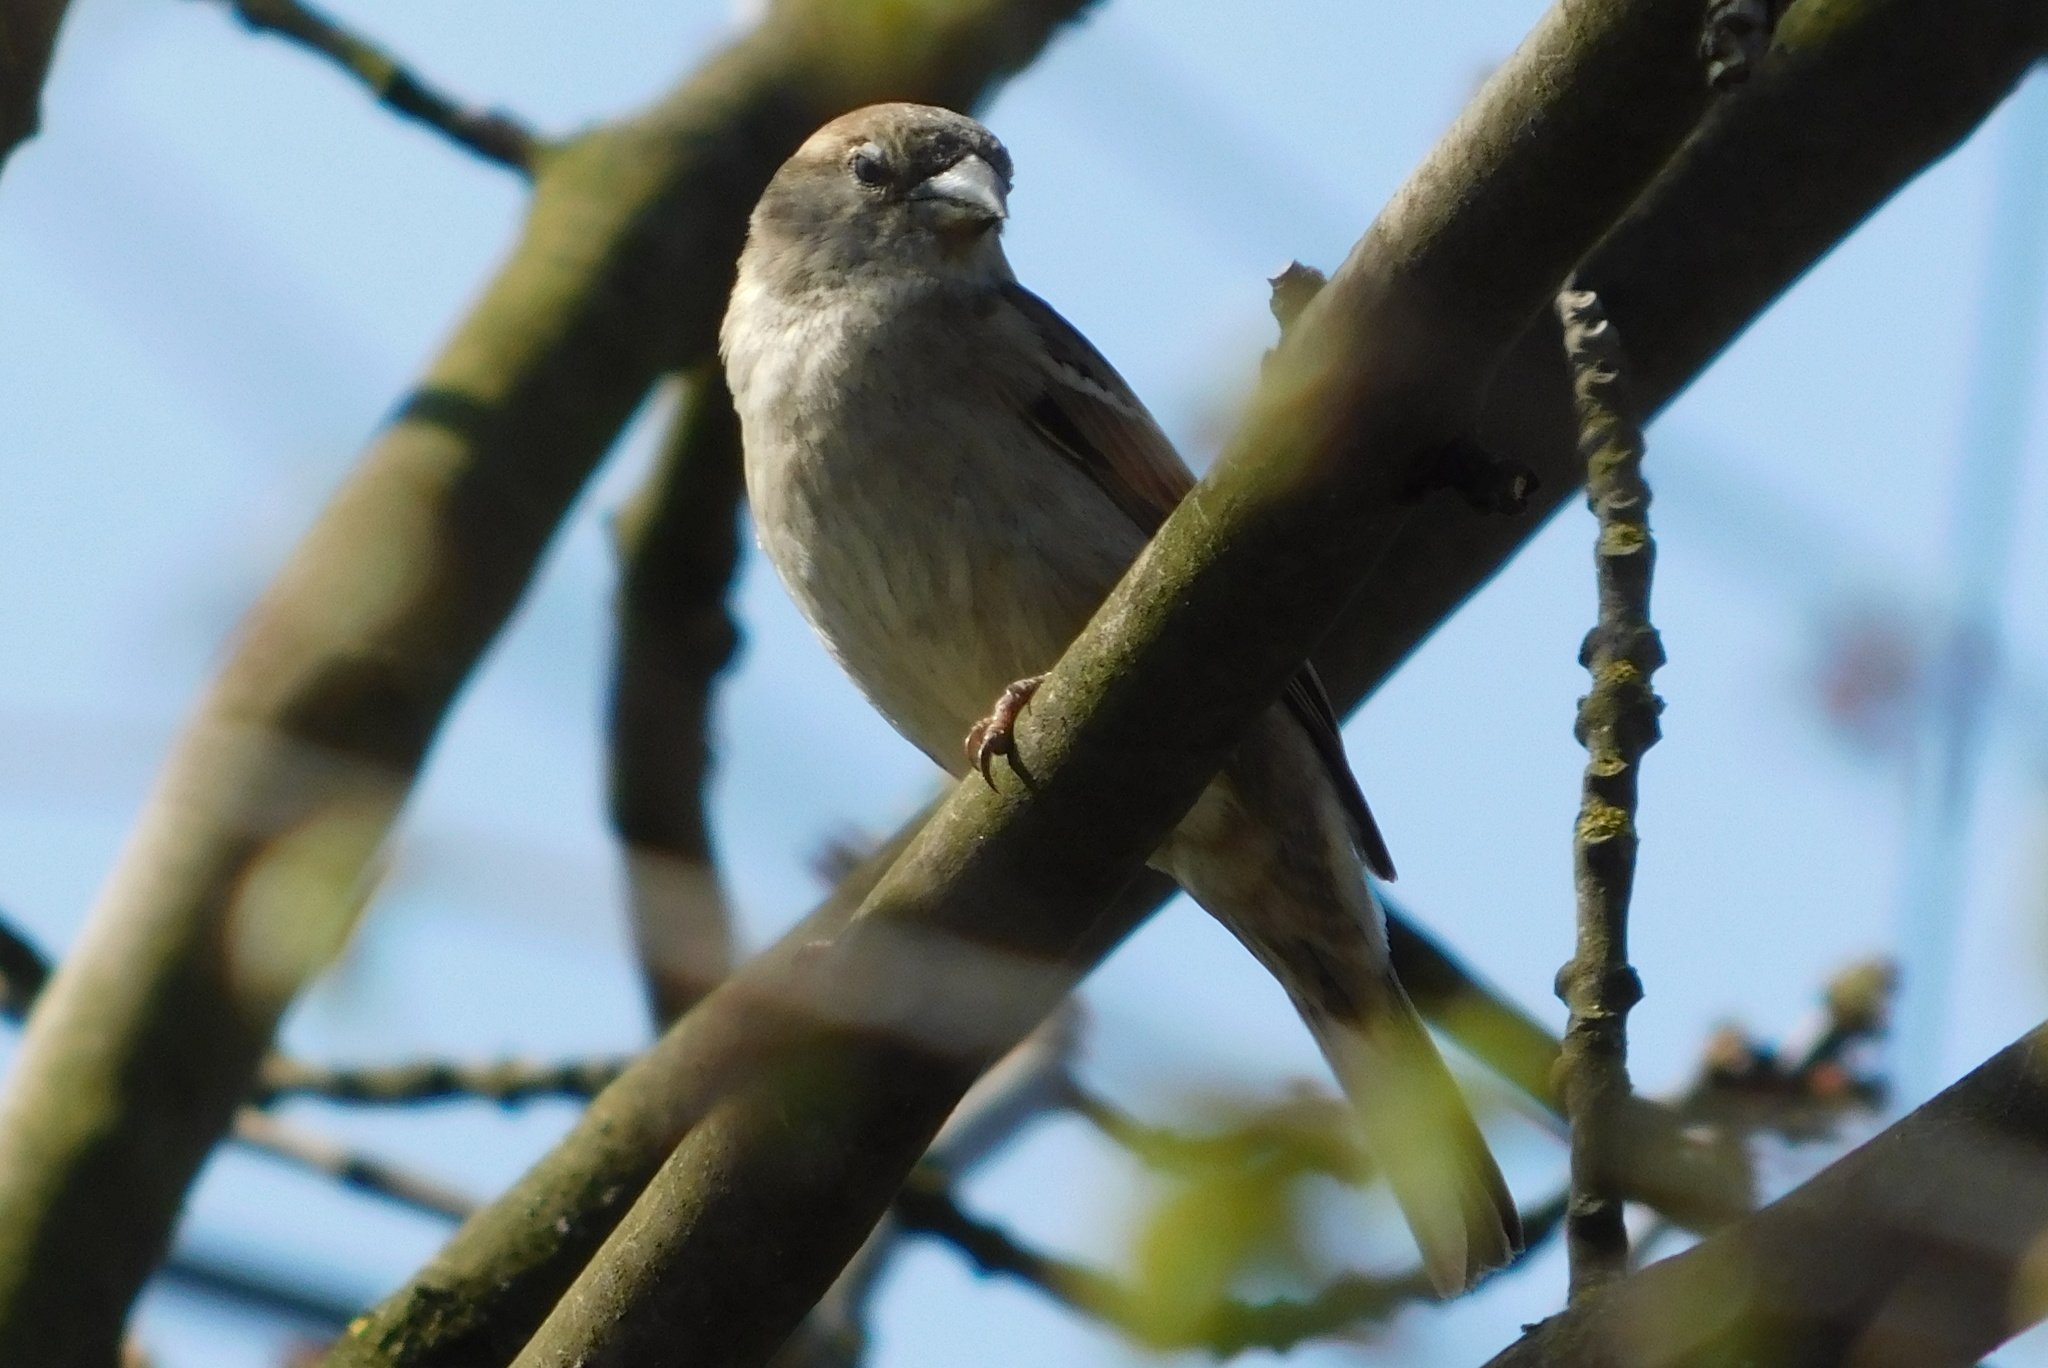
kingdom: Animalia
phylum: Chordata
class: Aves
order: Passeriformes
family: Passeridae
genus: Passer
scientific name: Passer domesticus
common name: House sparrow
